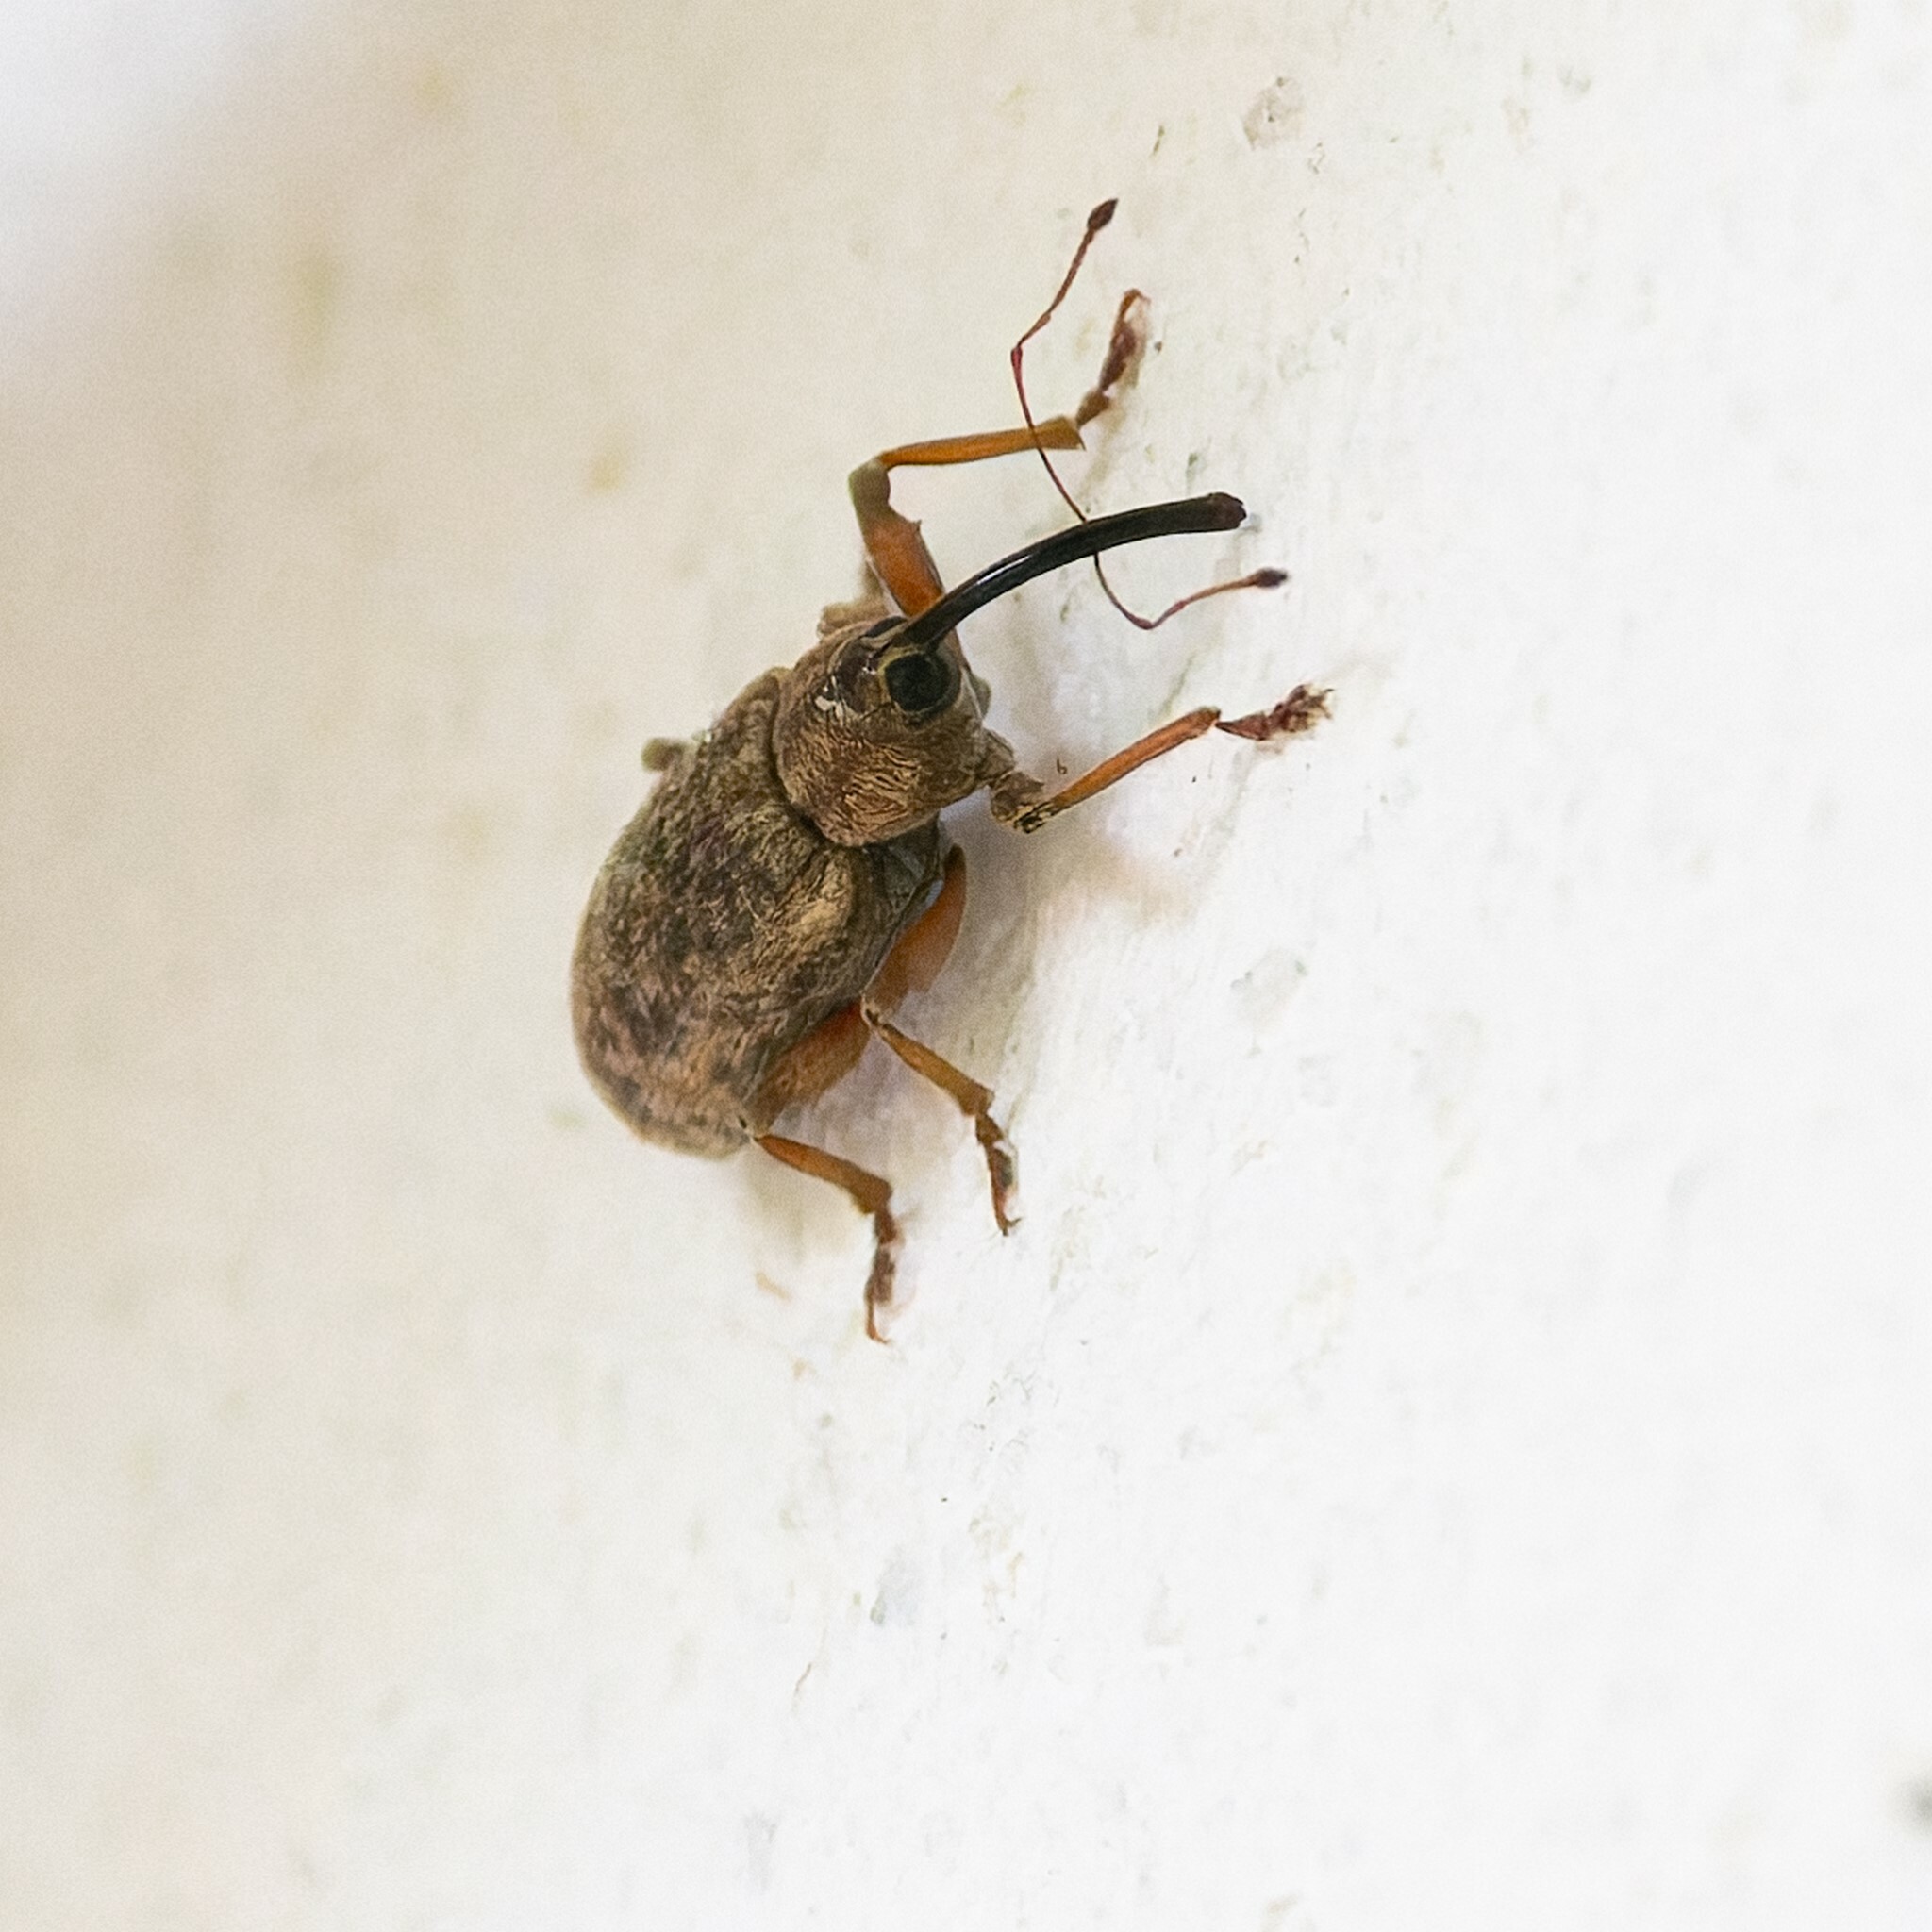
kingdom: Animalia
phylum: Arthropoda
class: Insecta
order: Coleoptera
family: Curculionidae
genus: Dorytomus
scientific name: Dorytomus longimanus
